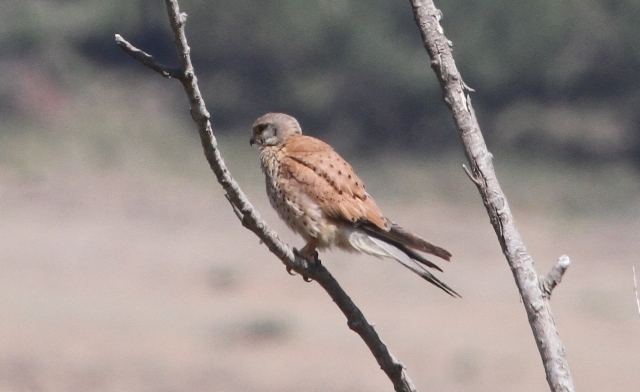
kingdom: Animalia
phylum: Chordata
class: Aves
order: Falconiformes
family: Falconidae
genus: Falco
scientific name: Falco tinnunculus
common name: Common kestrel
